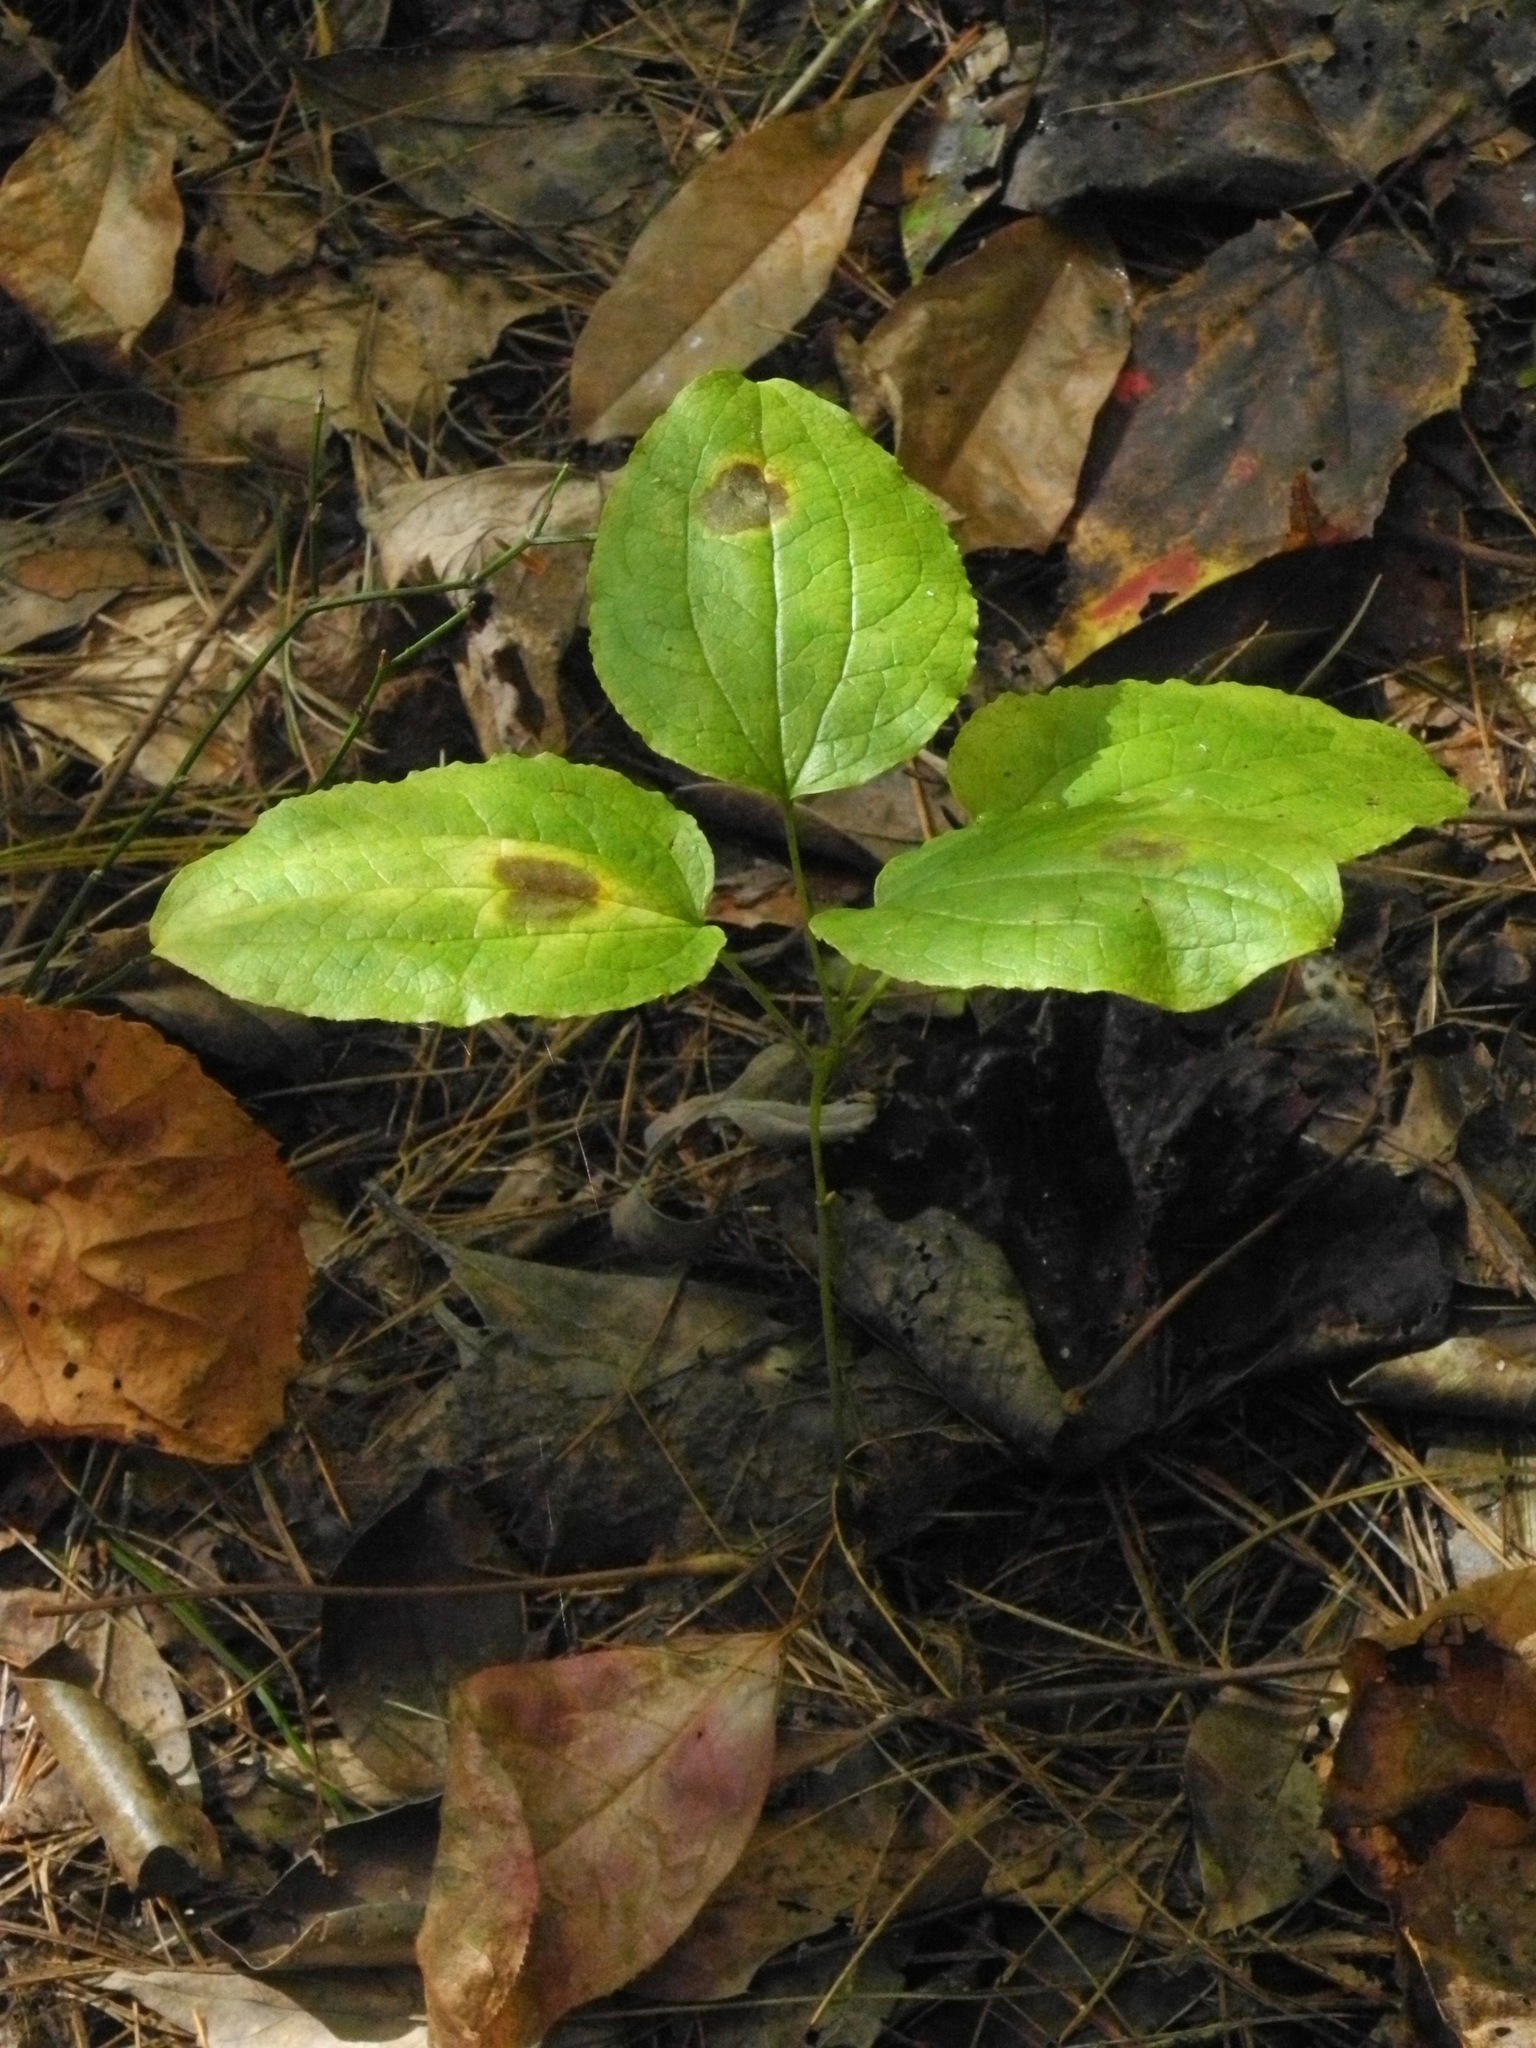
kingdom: Plantae
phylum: Tracheophyta
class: Liliopsida
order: Liliales
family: Smilacaceae
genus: Smilax
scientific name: Smilax hugeri
